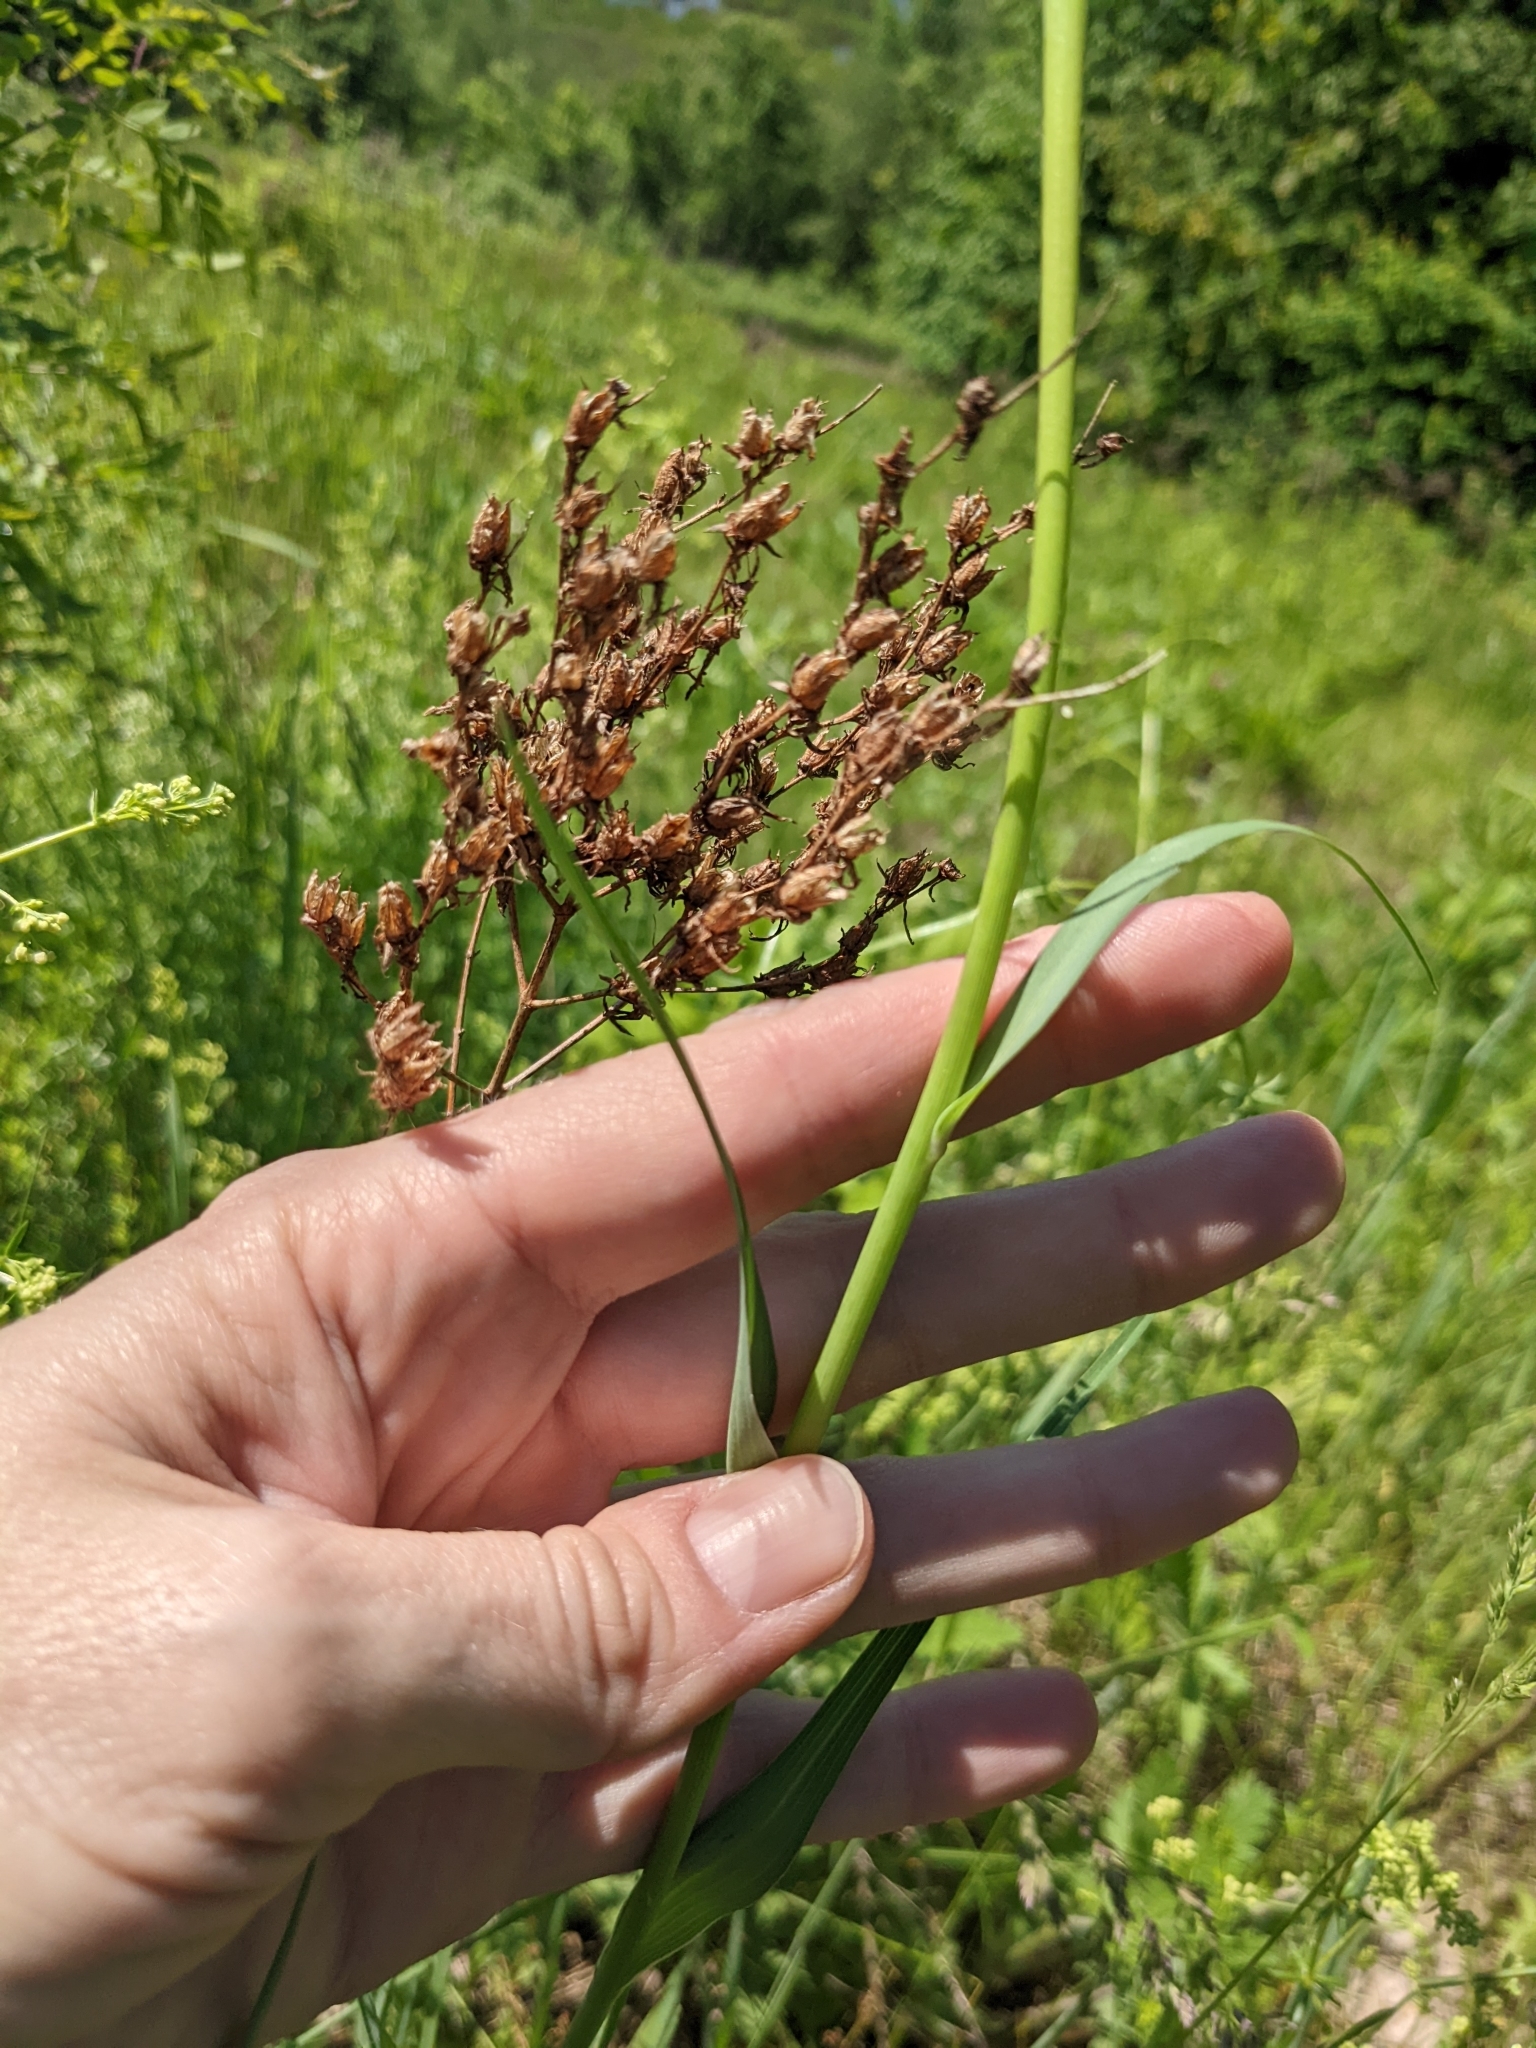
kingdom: Plantae
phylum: Tracheophyta
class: Magnoliopsida
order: Asterales
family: Asteraceae
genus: Tragopogon
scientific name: Tragopogon dubius
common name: Yellow salsify
